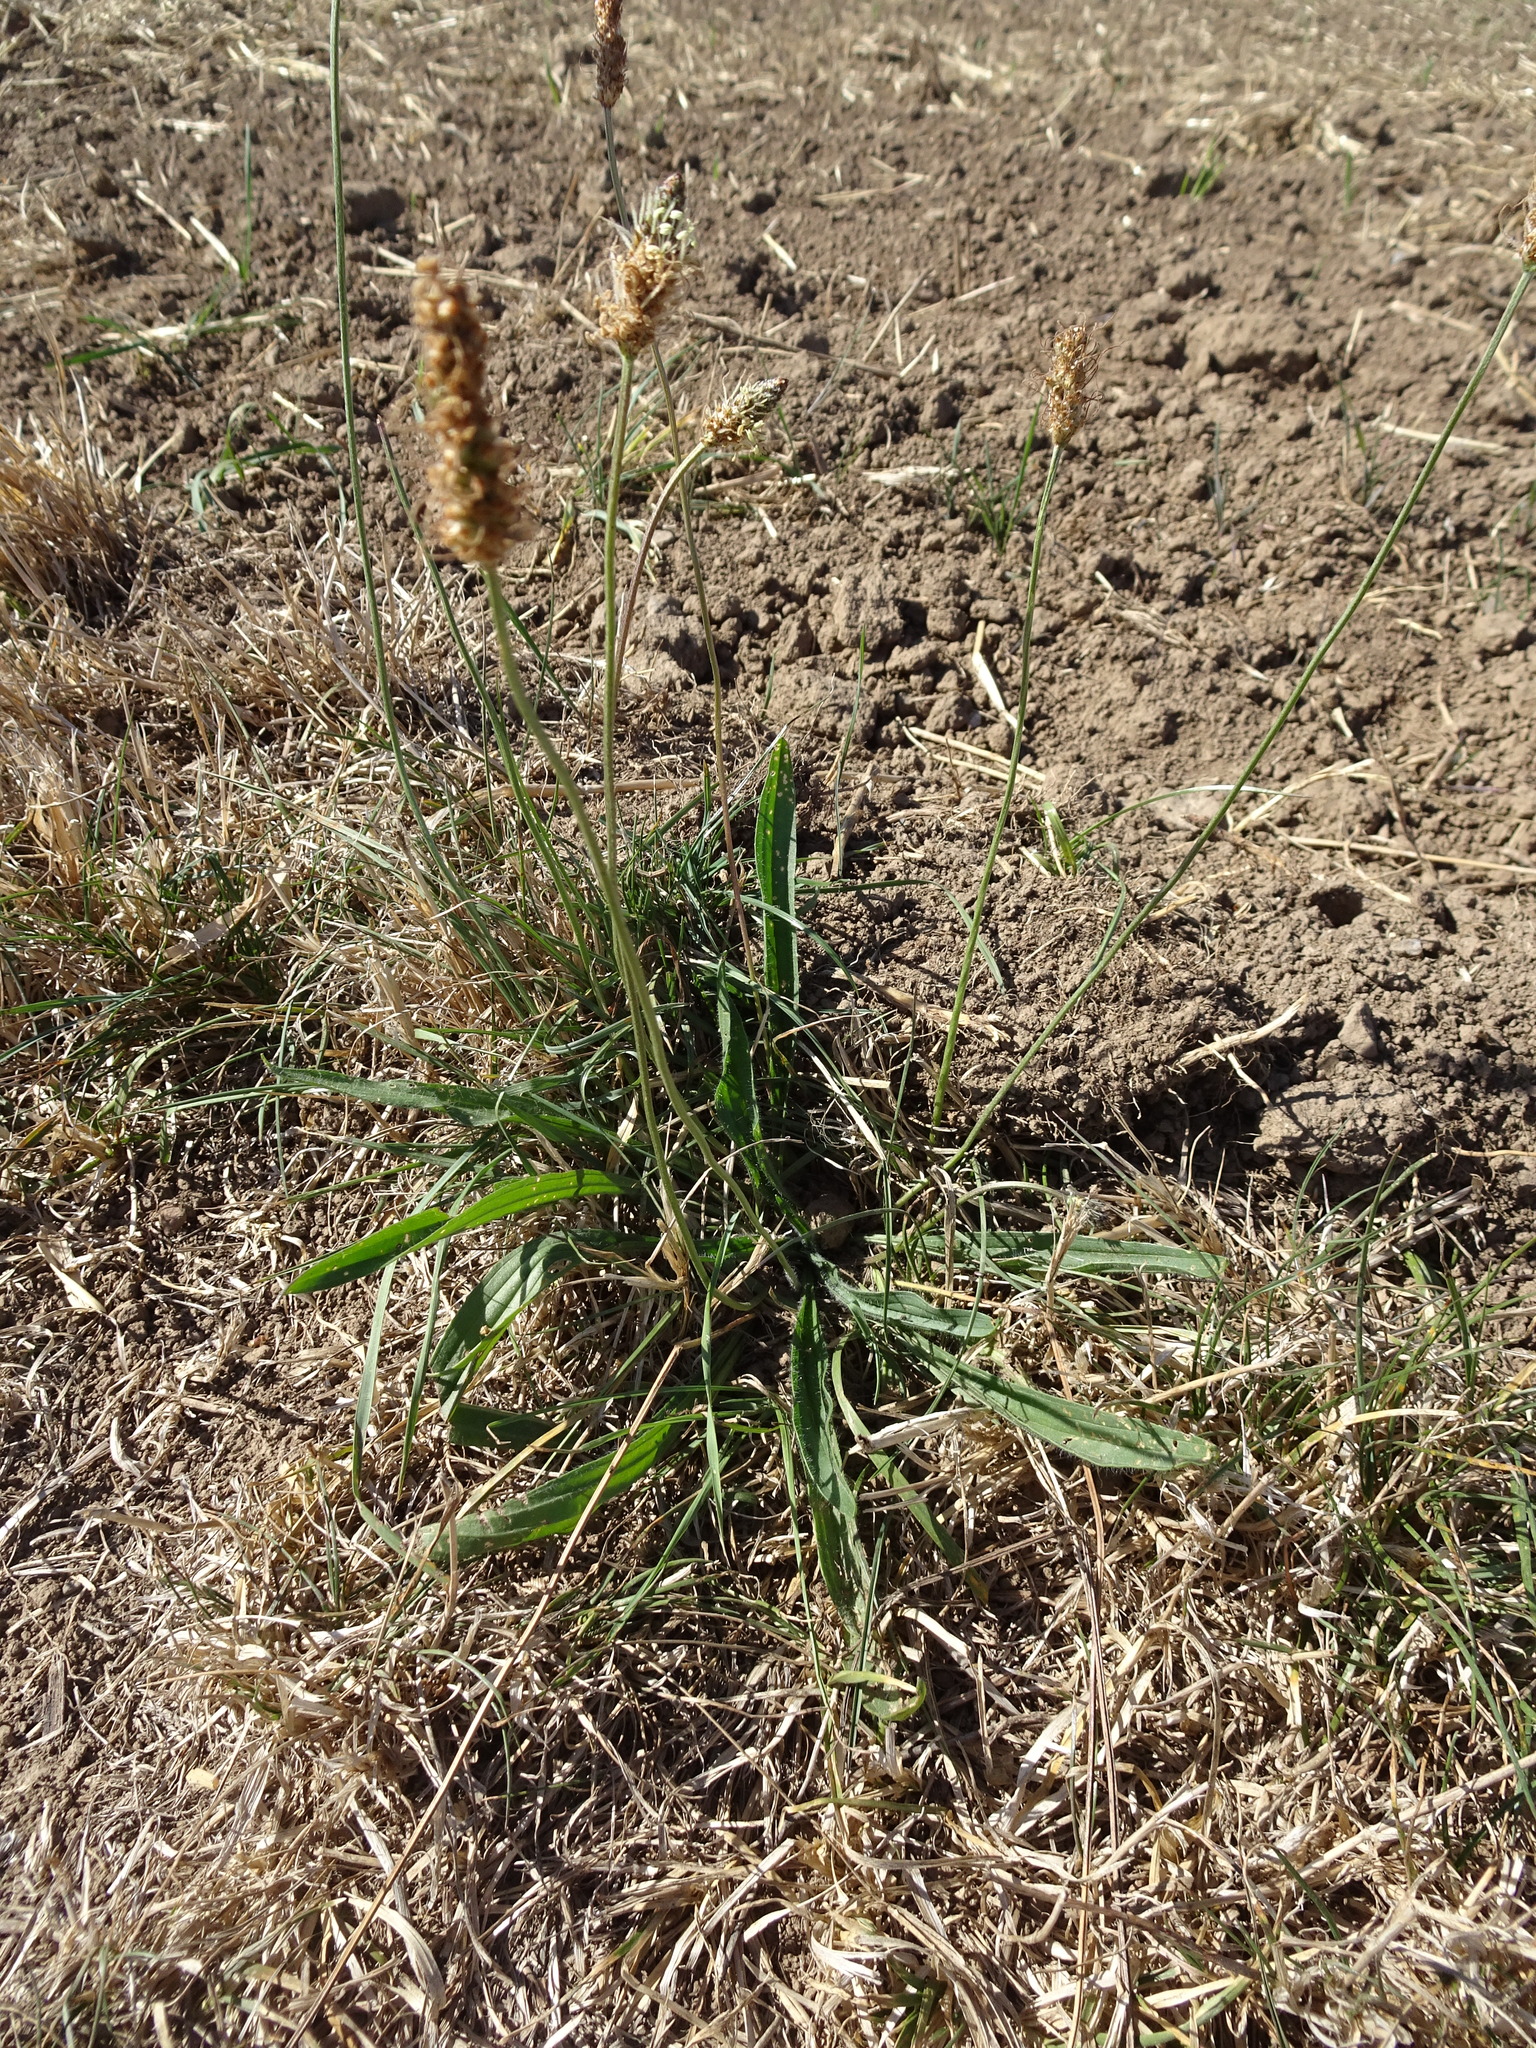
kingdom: Plantae
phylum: Tracheophyta
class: Magnoliopsida
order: Lamiales
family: Plantaginaceae
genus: Plantago
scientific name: Plantago lanceolata
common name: Ribwort plantain
